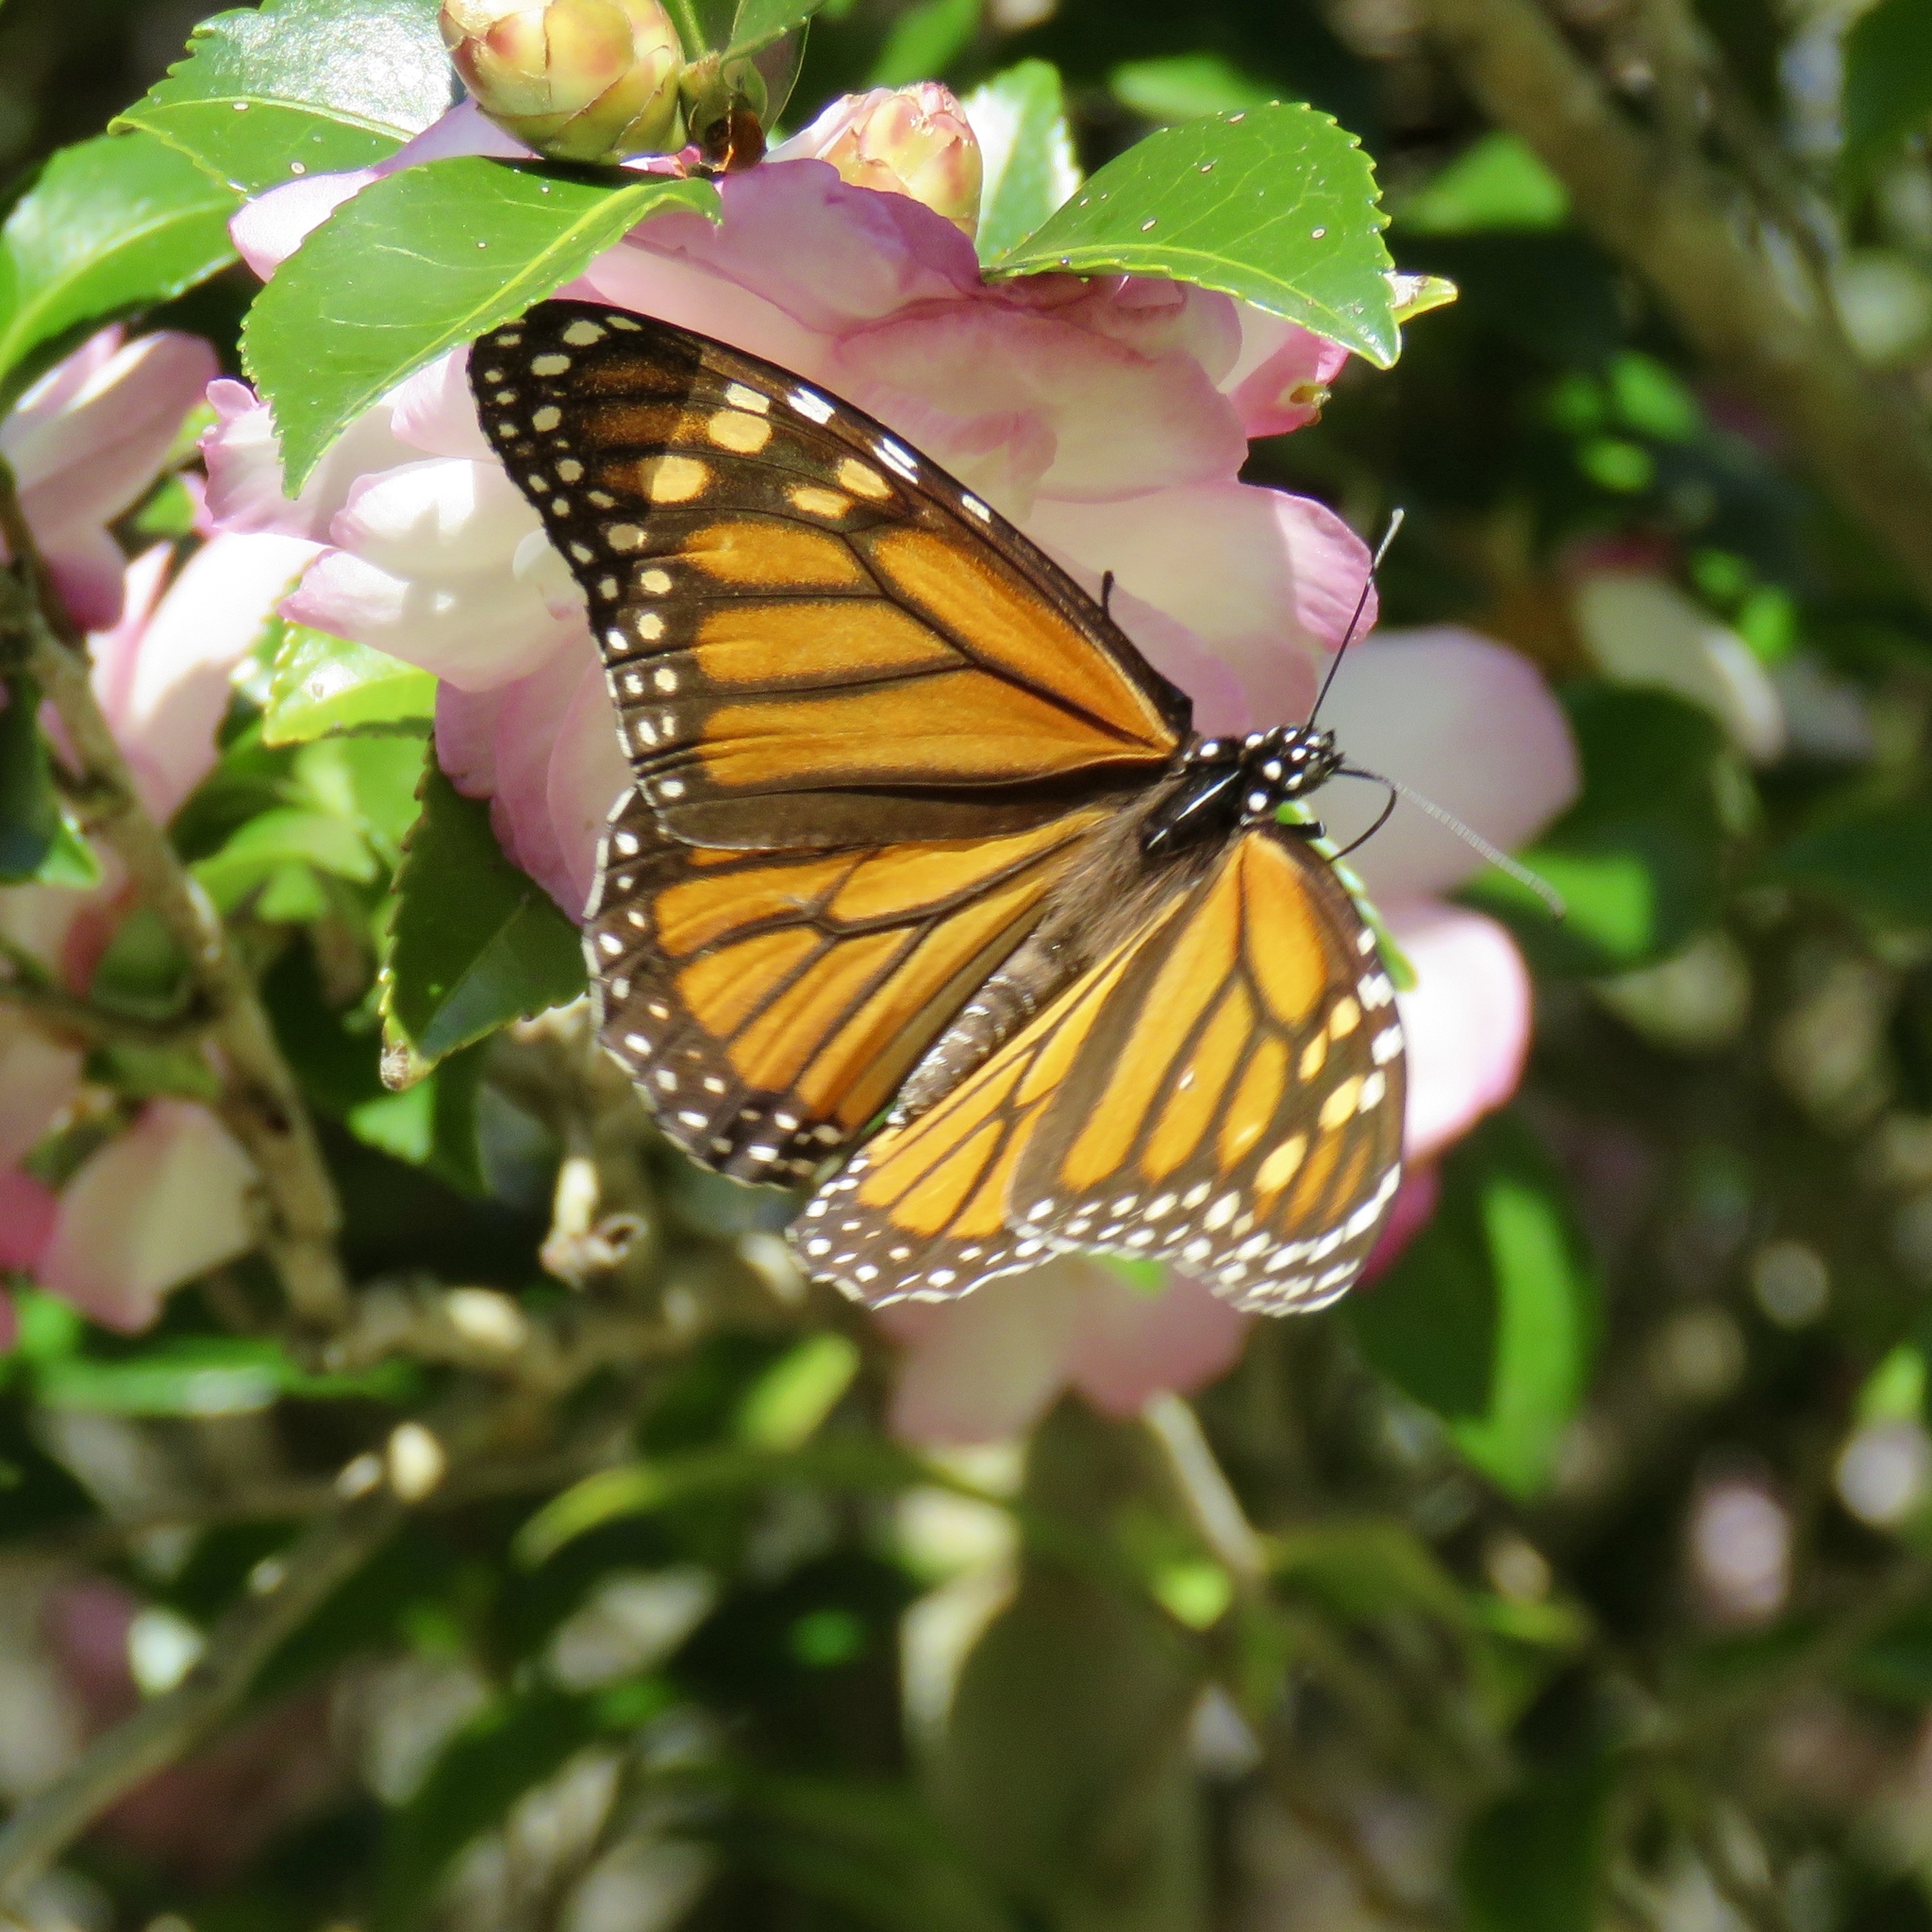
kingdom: Animalia
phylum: Arthropoda
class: Insecta
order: Lepidoptera
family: Nymphalidae
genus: Danaus
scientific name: Danaus plexippus
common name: Monarch
